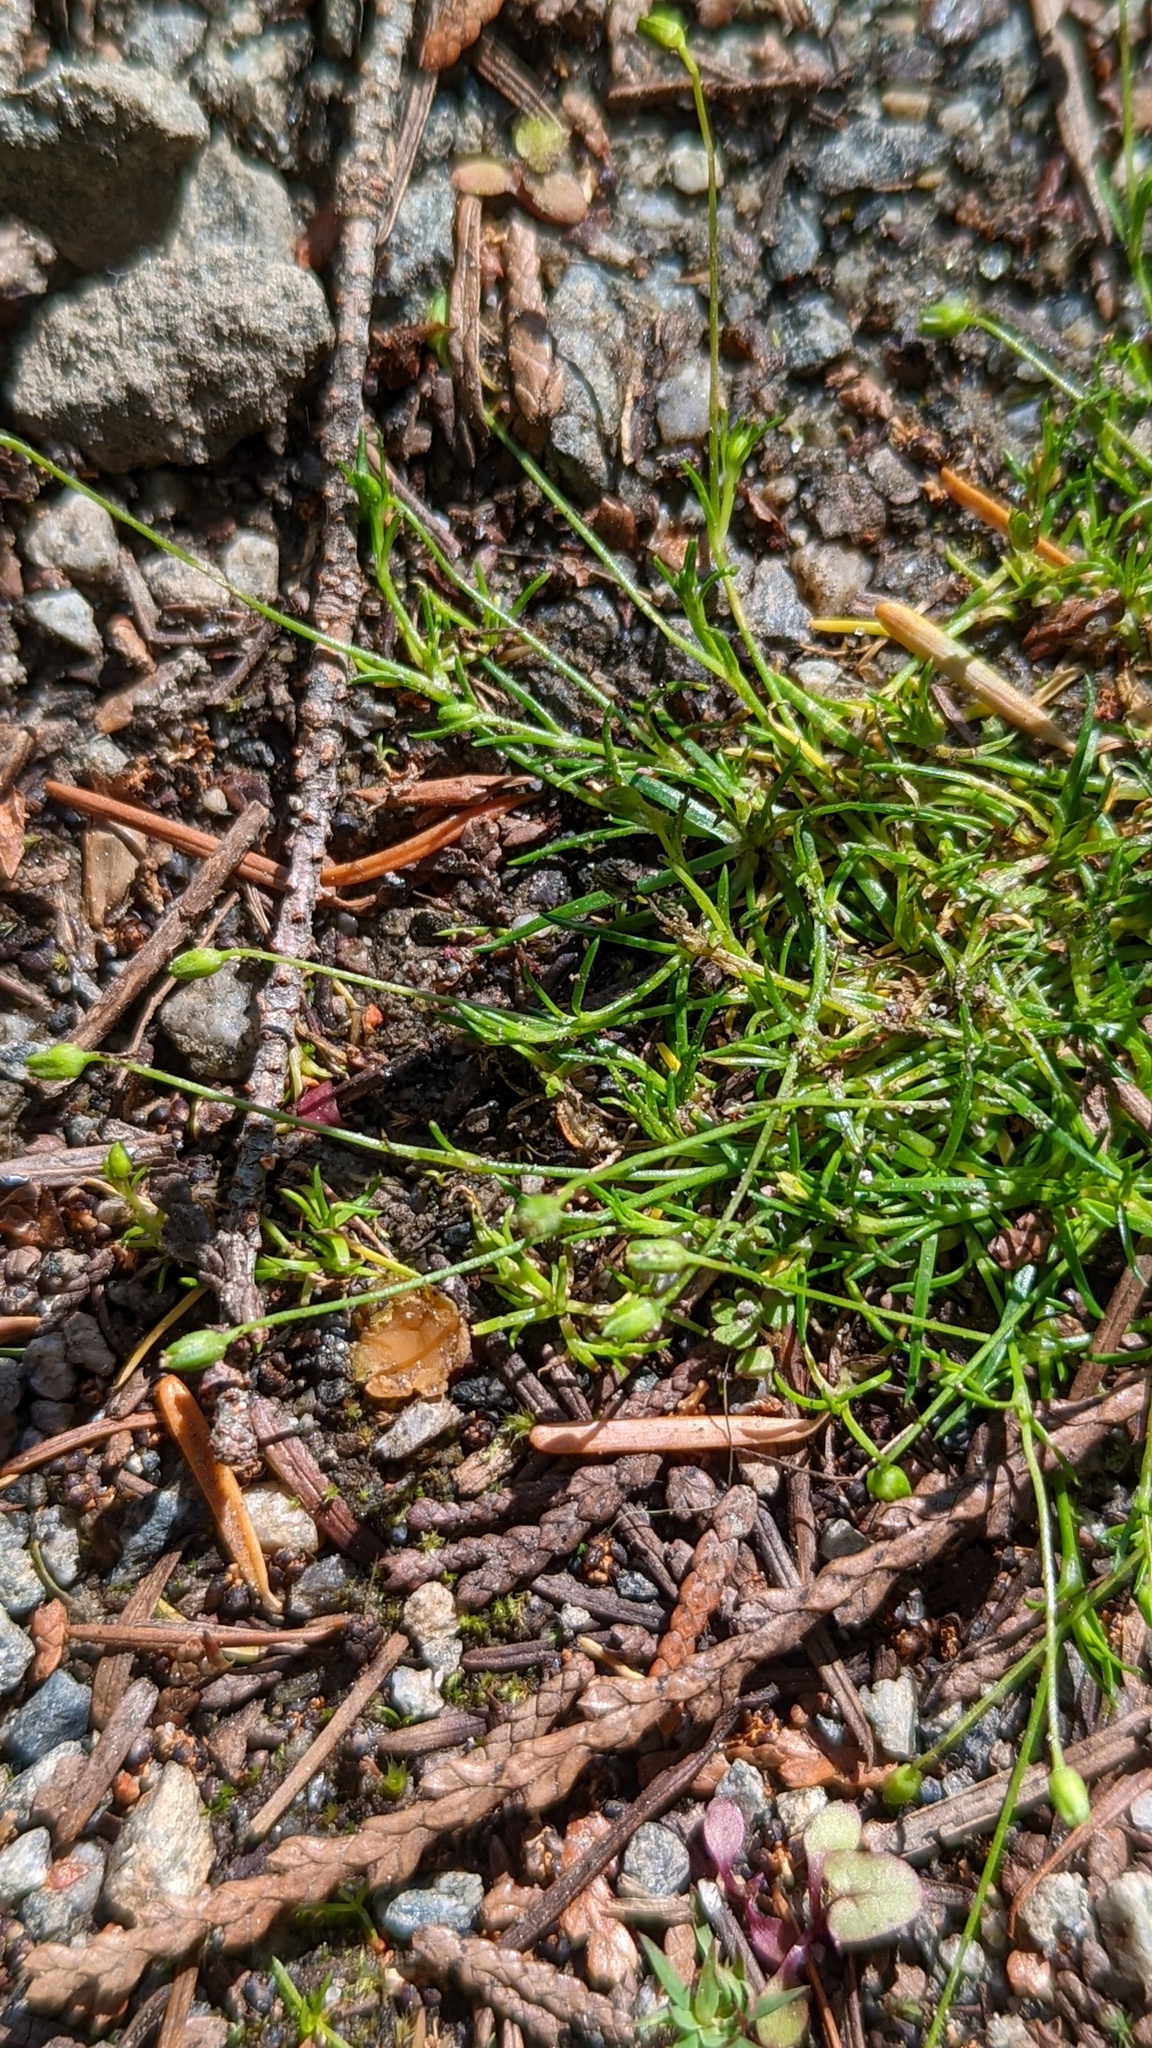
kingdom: Plantae
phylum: Tracheophyta
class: Magnoliopsida
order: Caryophyllales
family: Caryophyllaceae
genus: Sagina
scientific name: Sagina saginoides
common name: Alpine pearlwort
